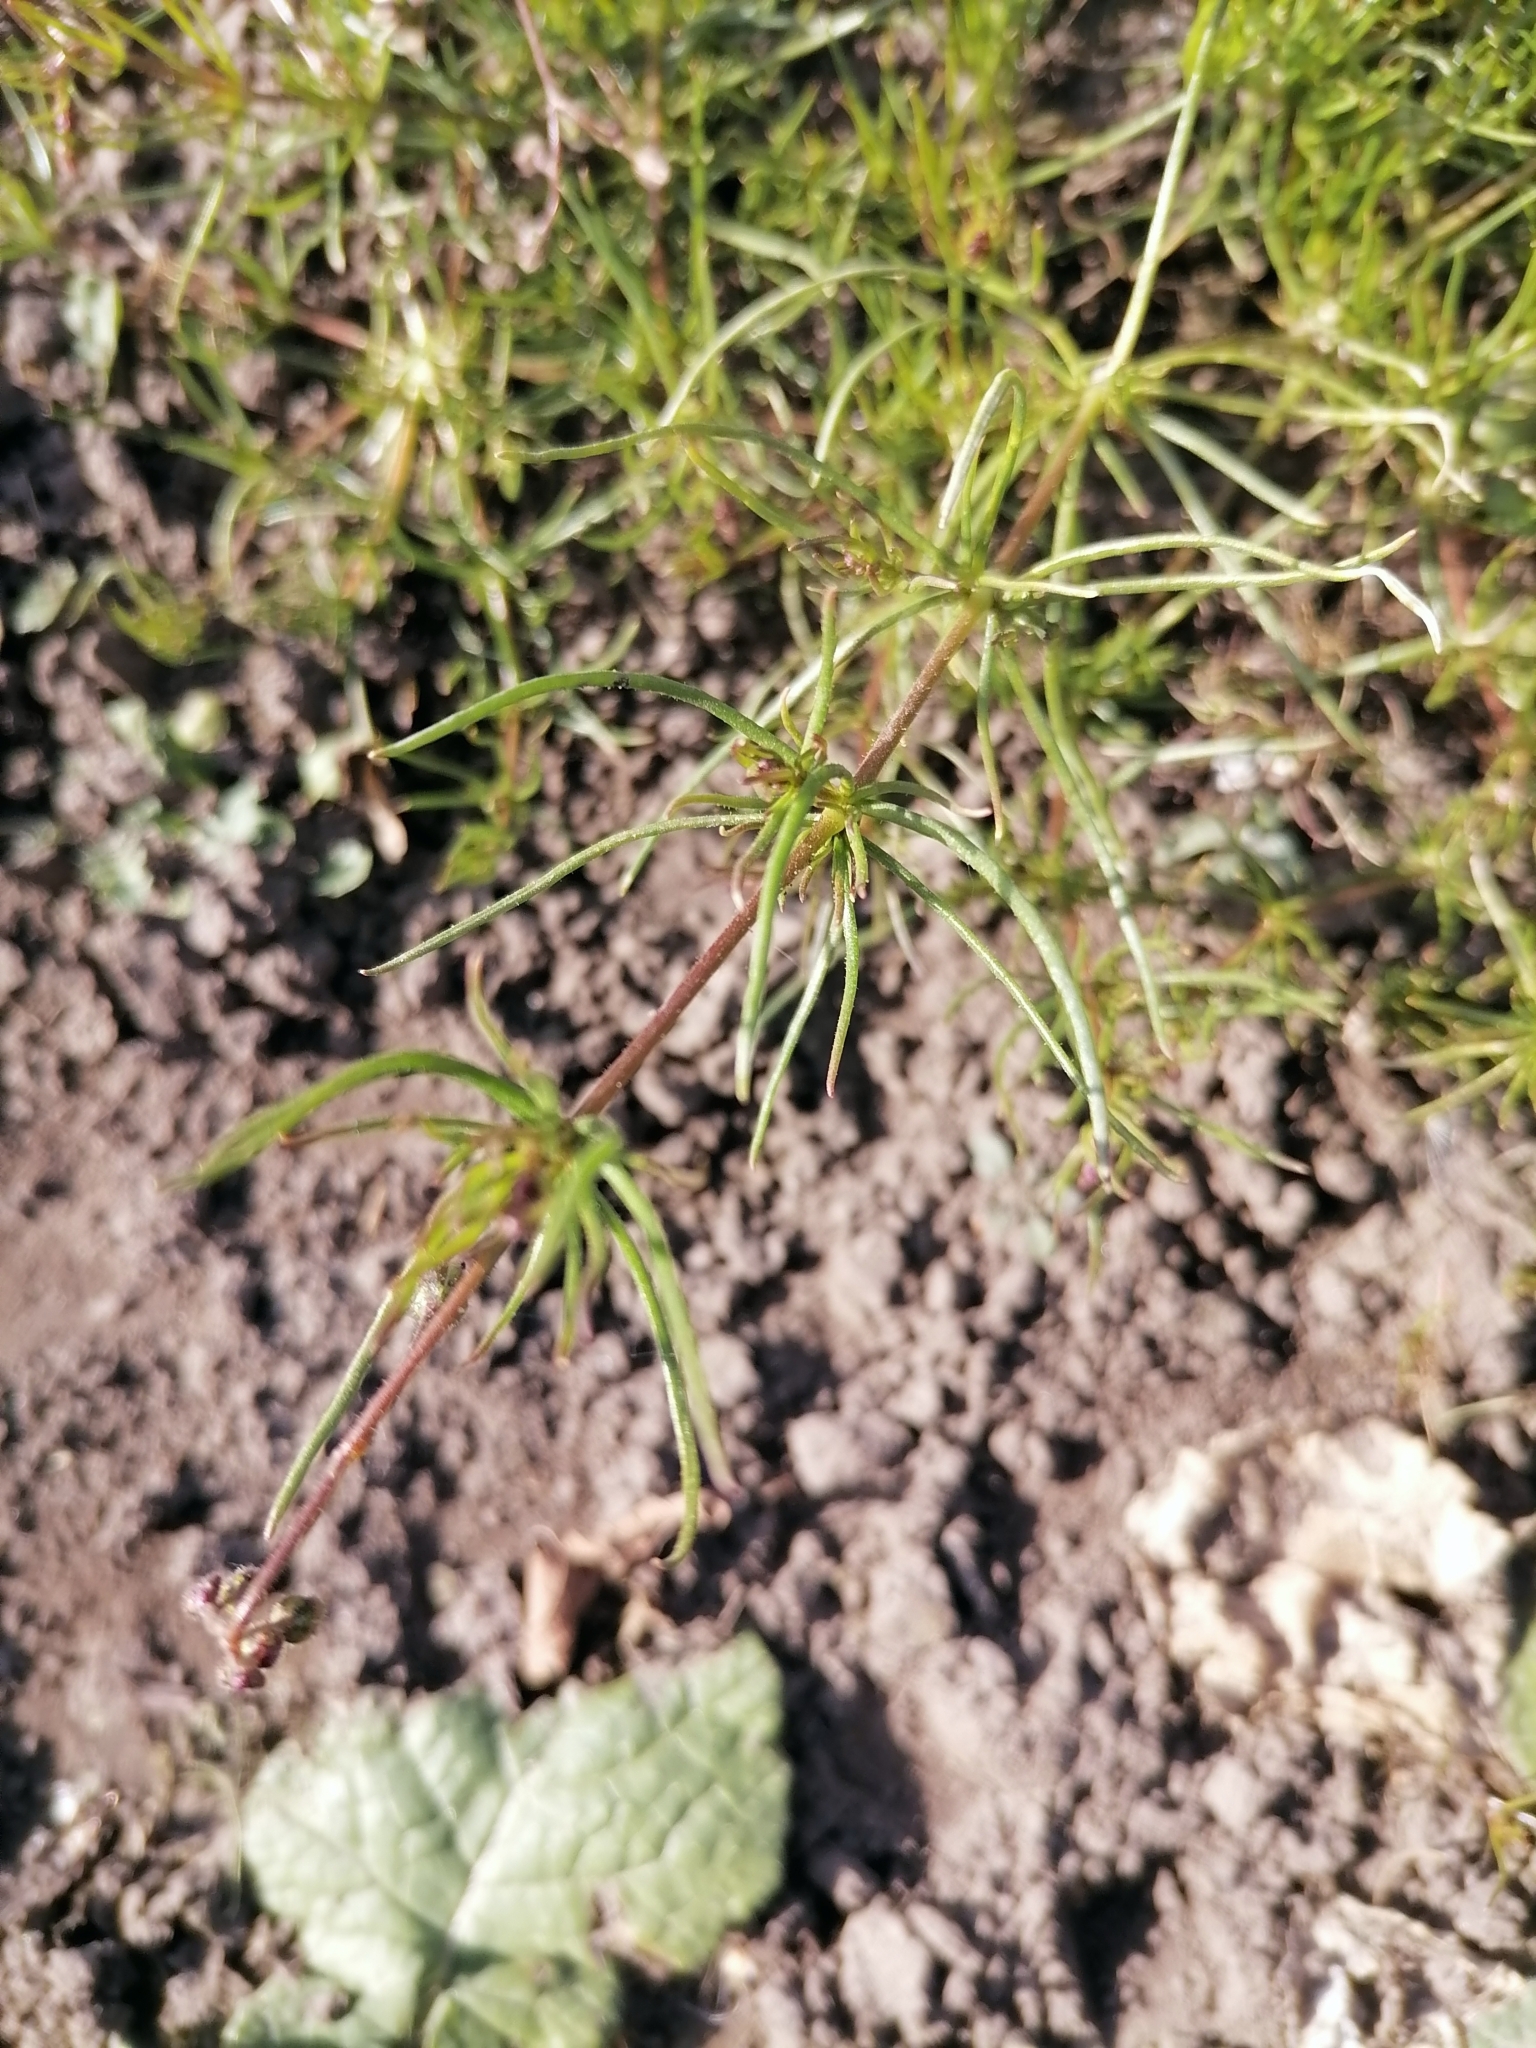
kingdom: Plantae
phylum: Tracheophyta
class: Magnoliopsida
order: Caryophyllales
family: Caryophyllaceae
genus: Spergula
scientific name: Spergula arvensis
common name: Corn spurrey
